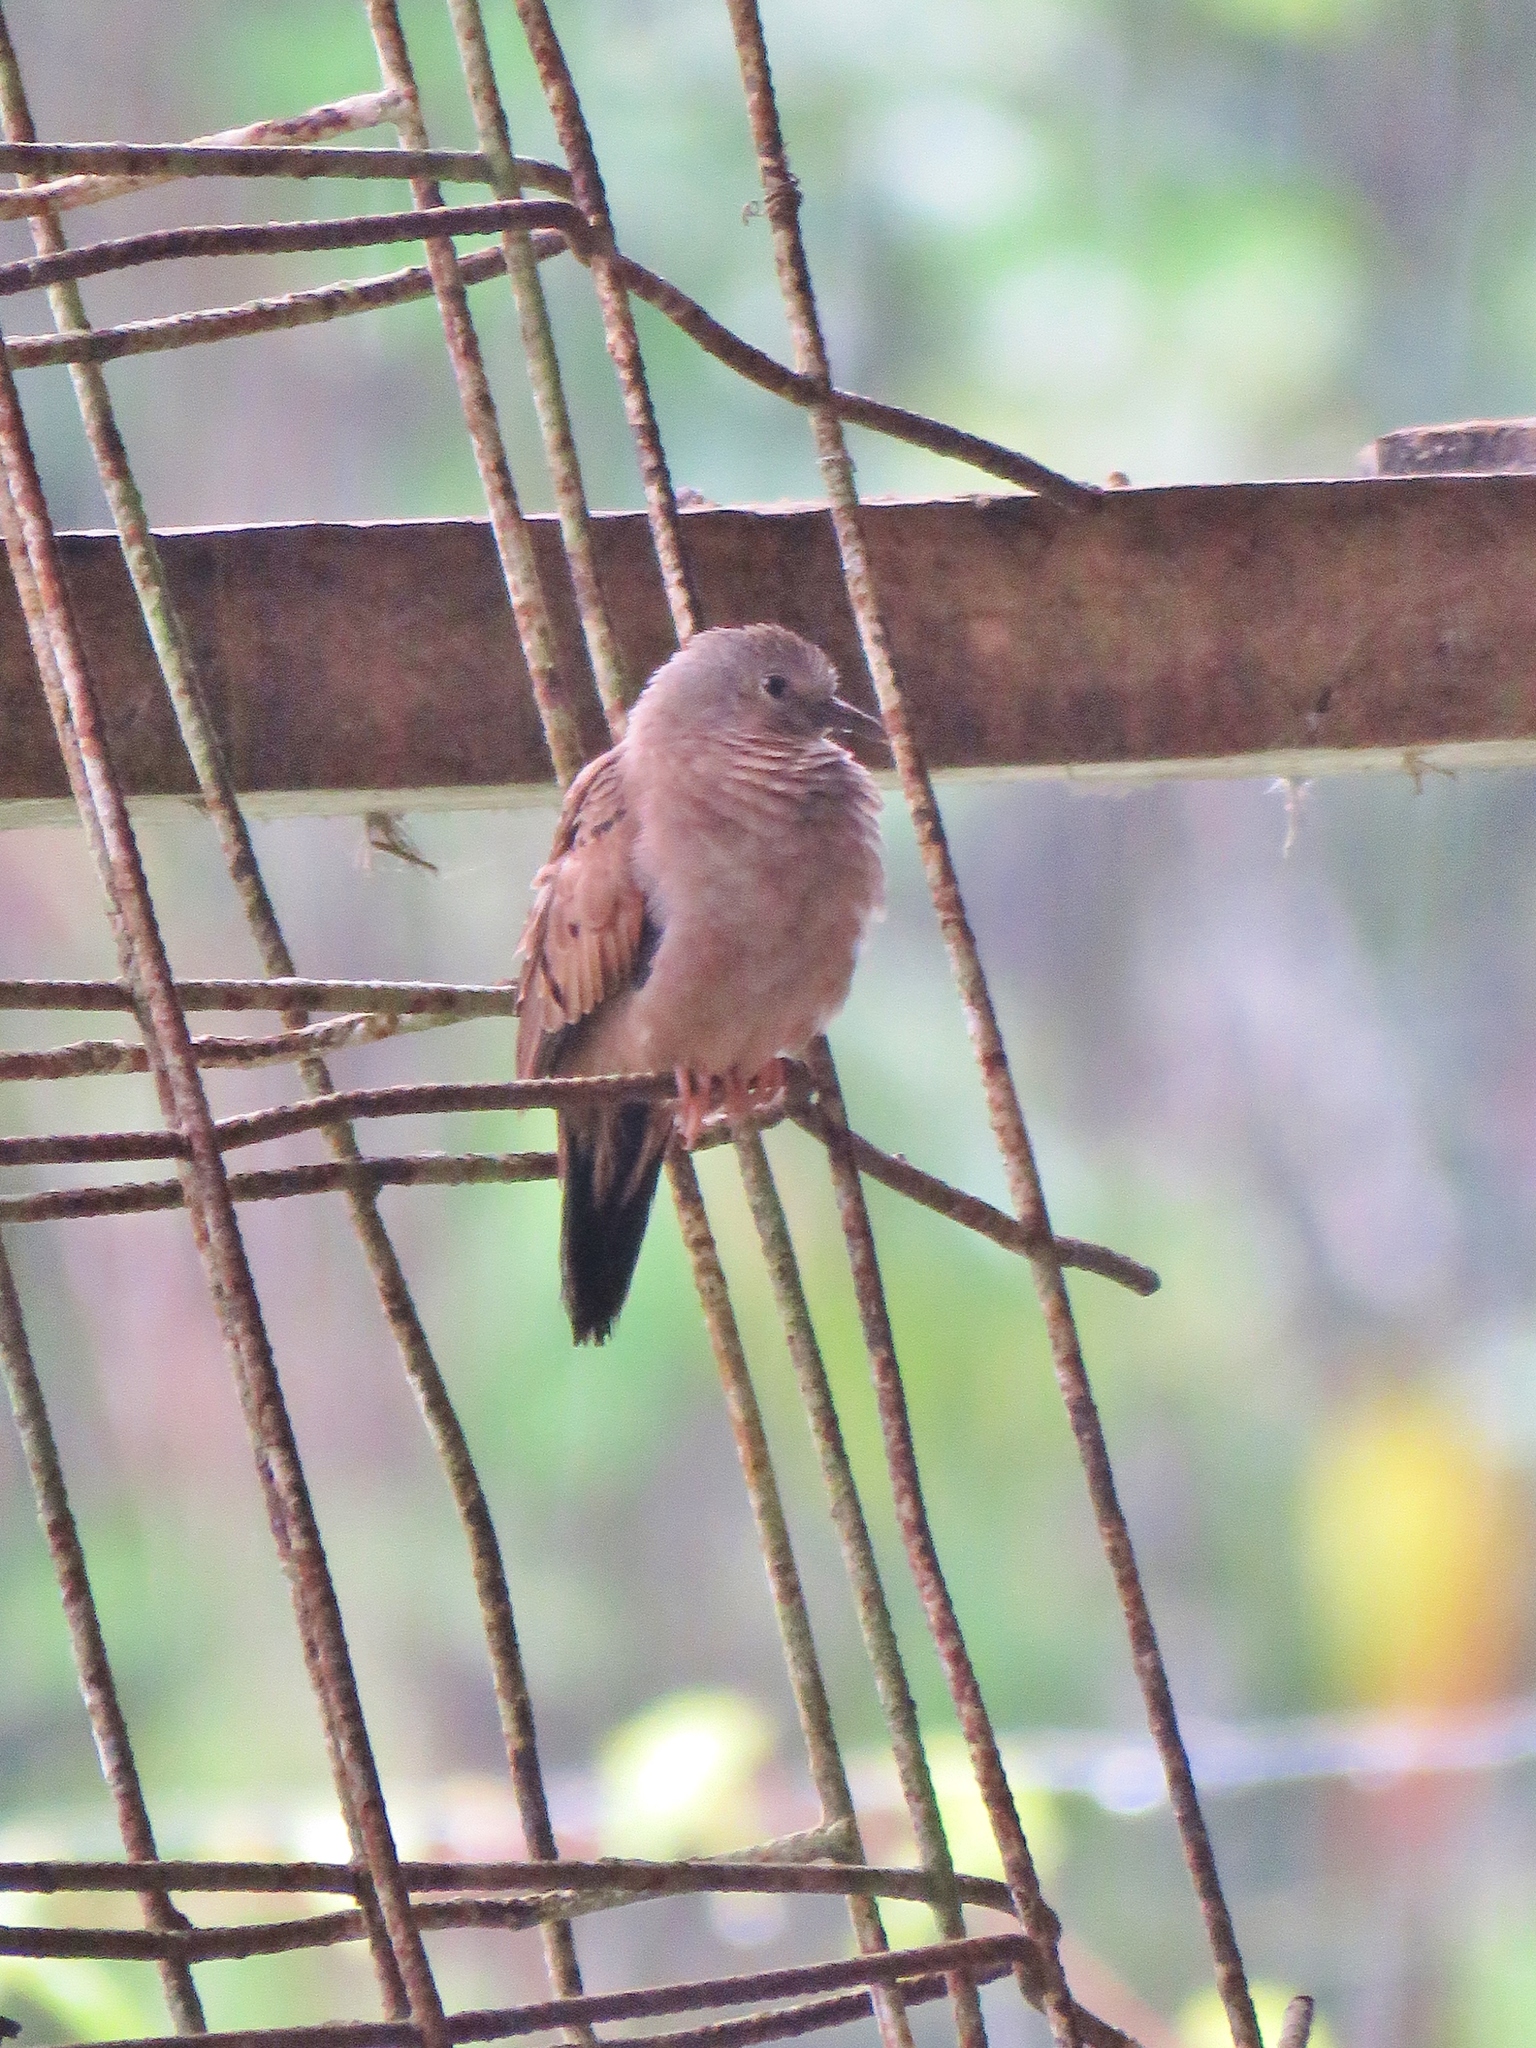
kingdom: Animalia
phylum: Chordata
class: Aves
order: Columbiformes
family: Columbidae
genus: Columbina
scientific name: Columbina talpacoti
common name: Ruddy ground dove
